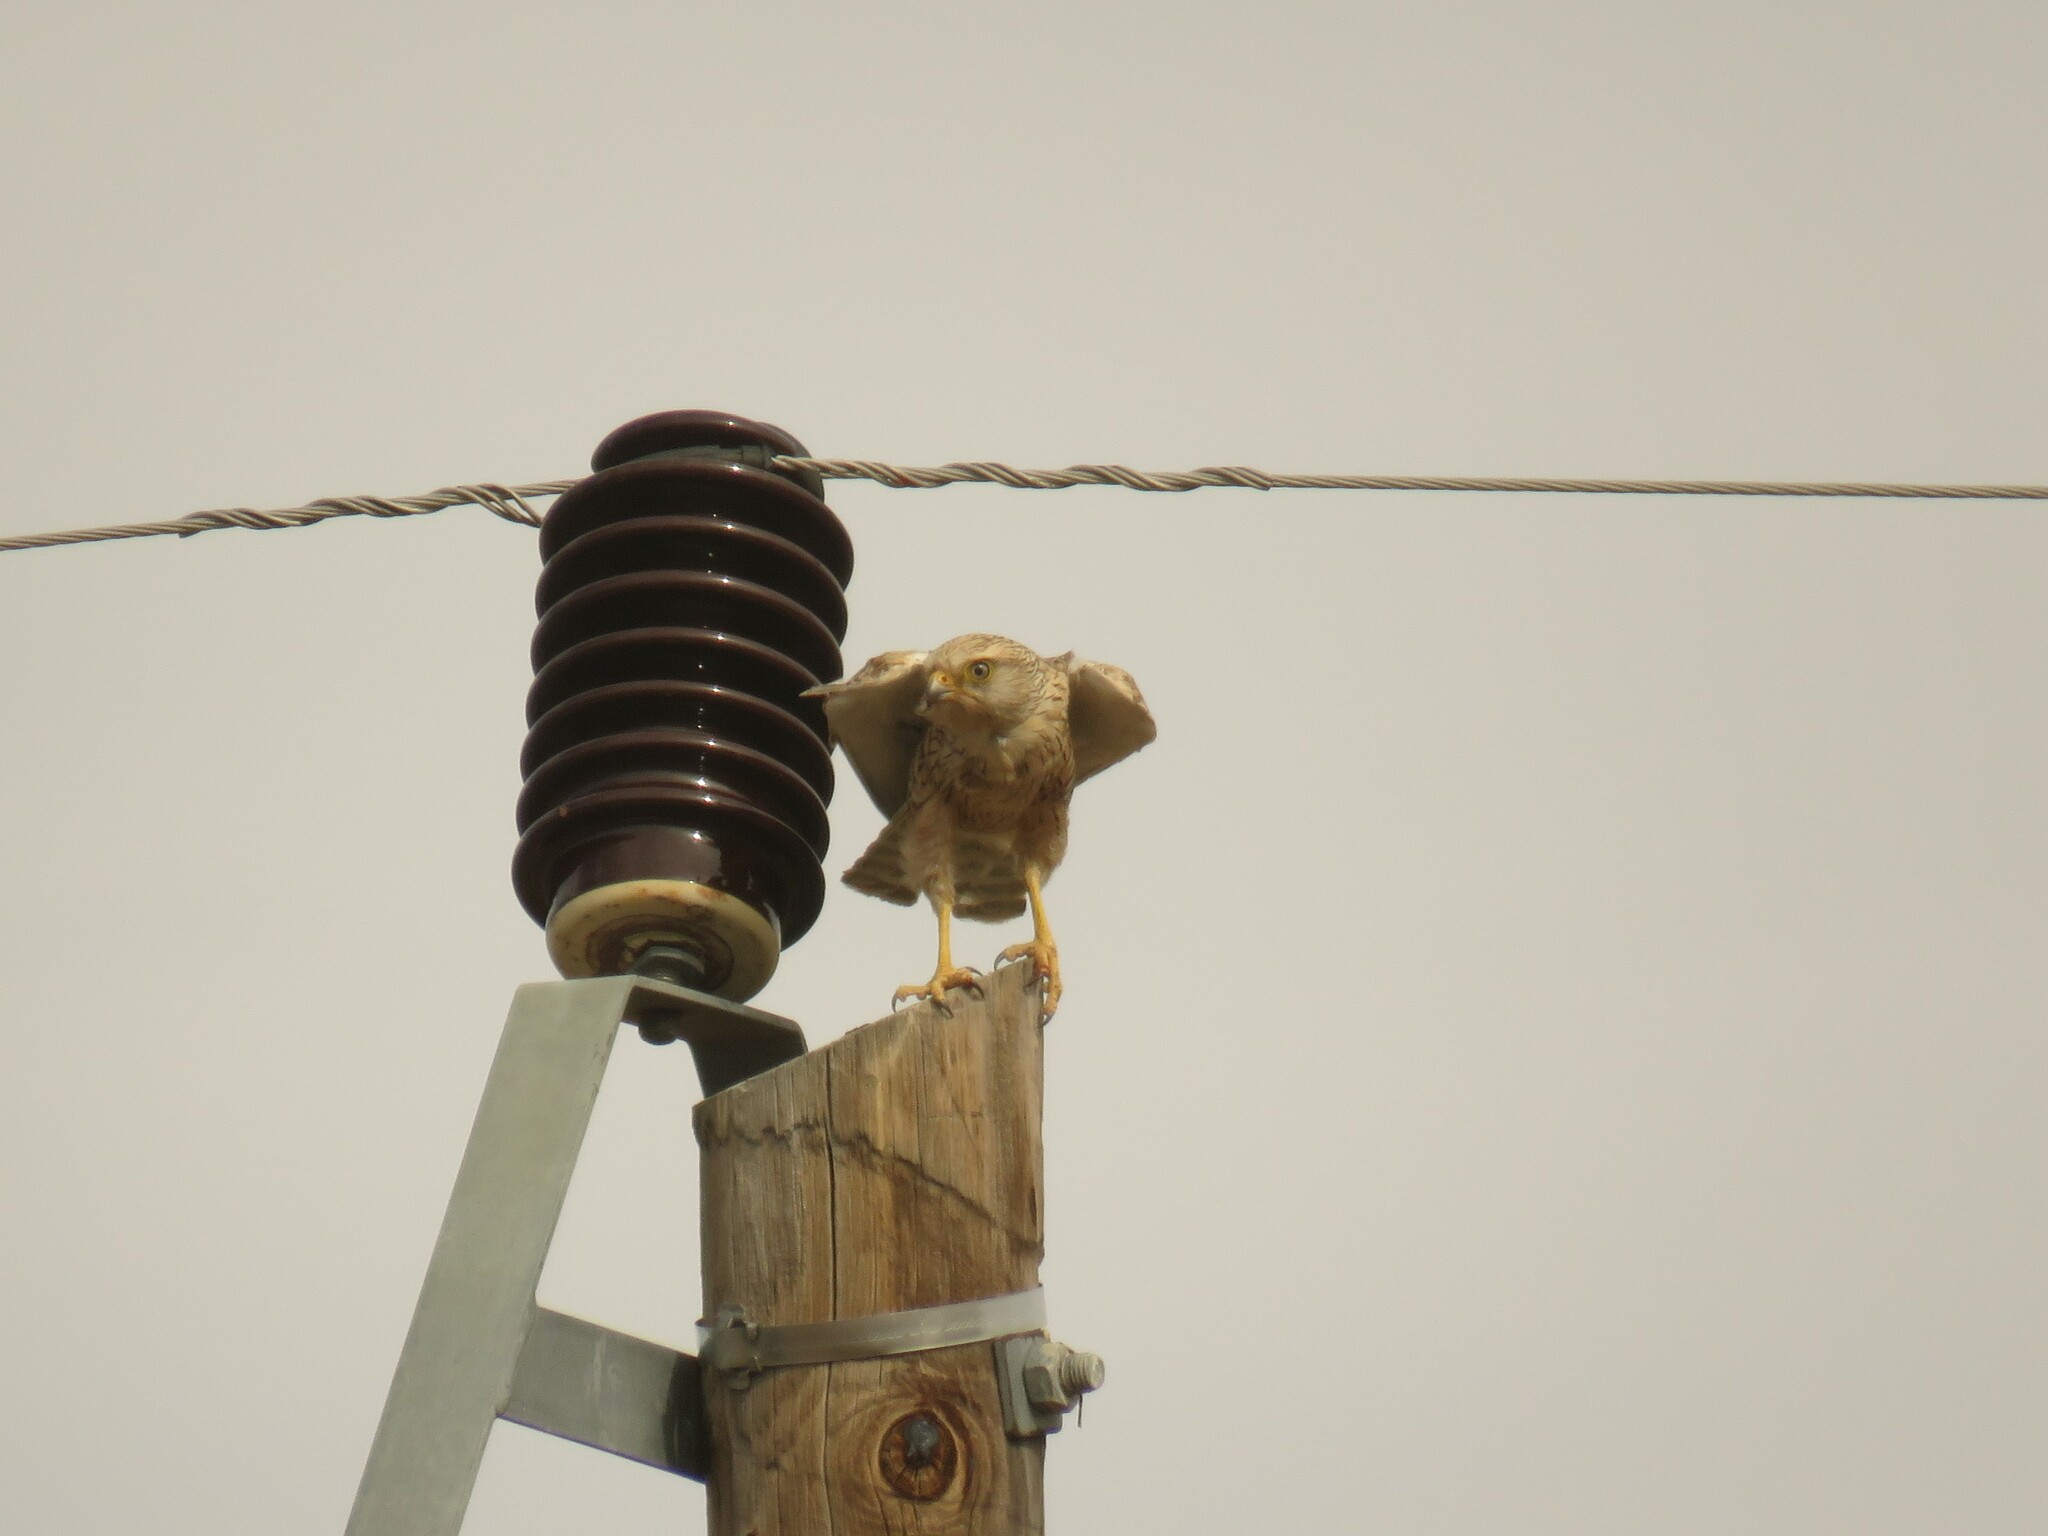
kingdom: Animalia
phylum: Chordata
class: Aves
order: Falconiformes
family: Falconidae
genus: Falco
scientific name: Falco rupicoloides
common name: Greater kestrel
